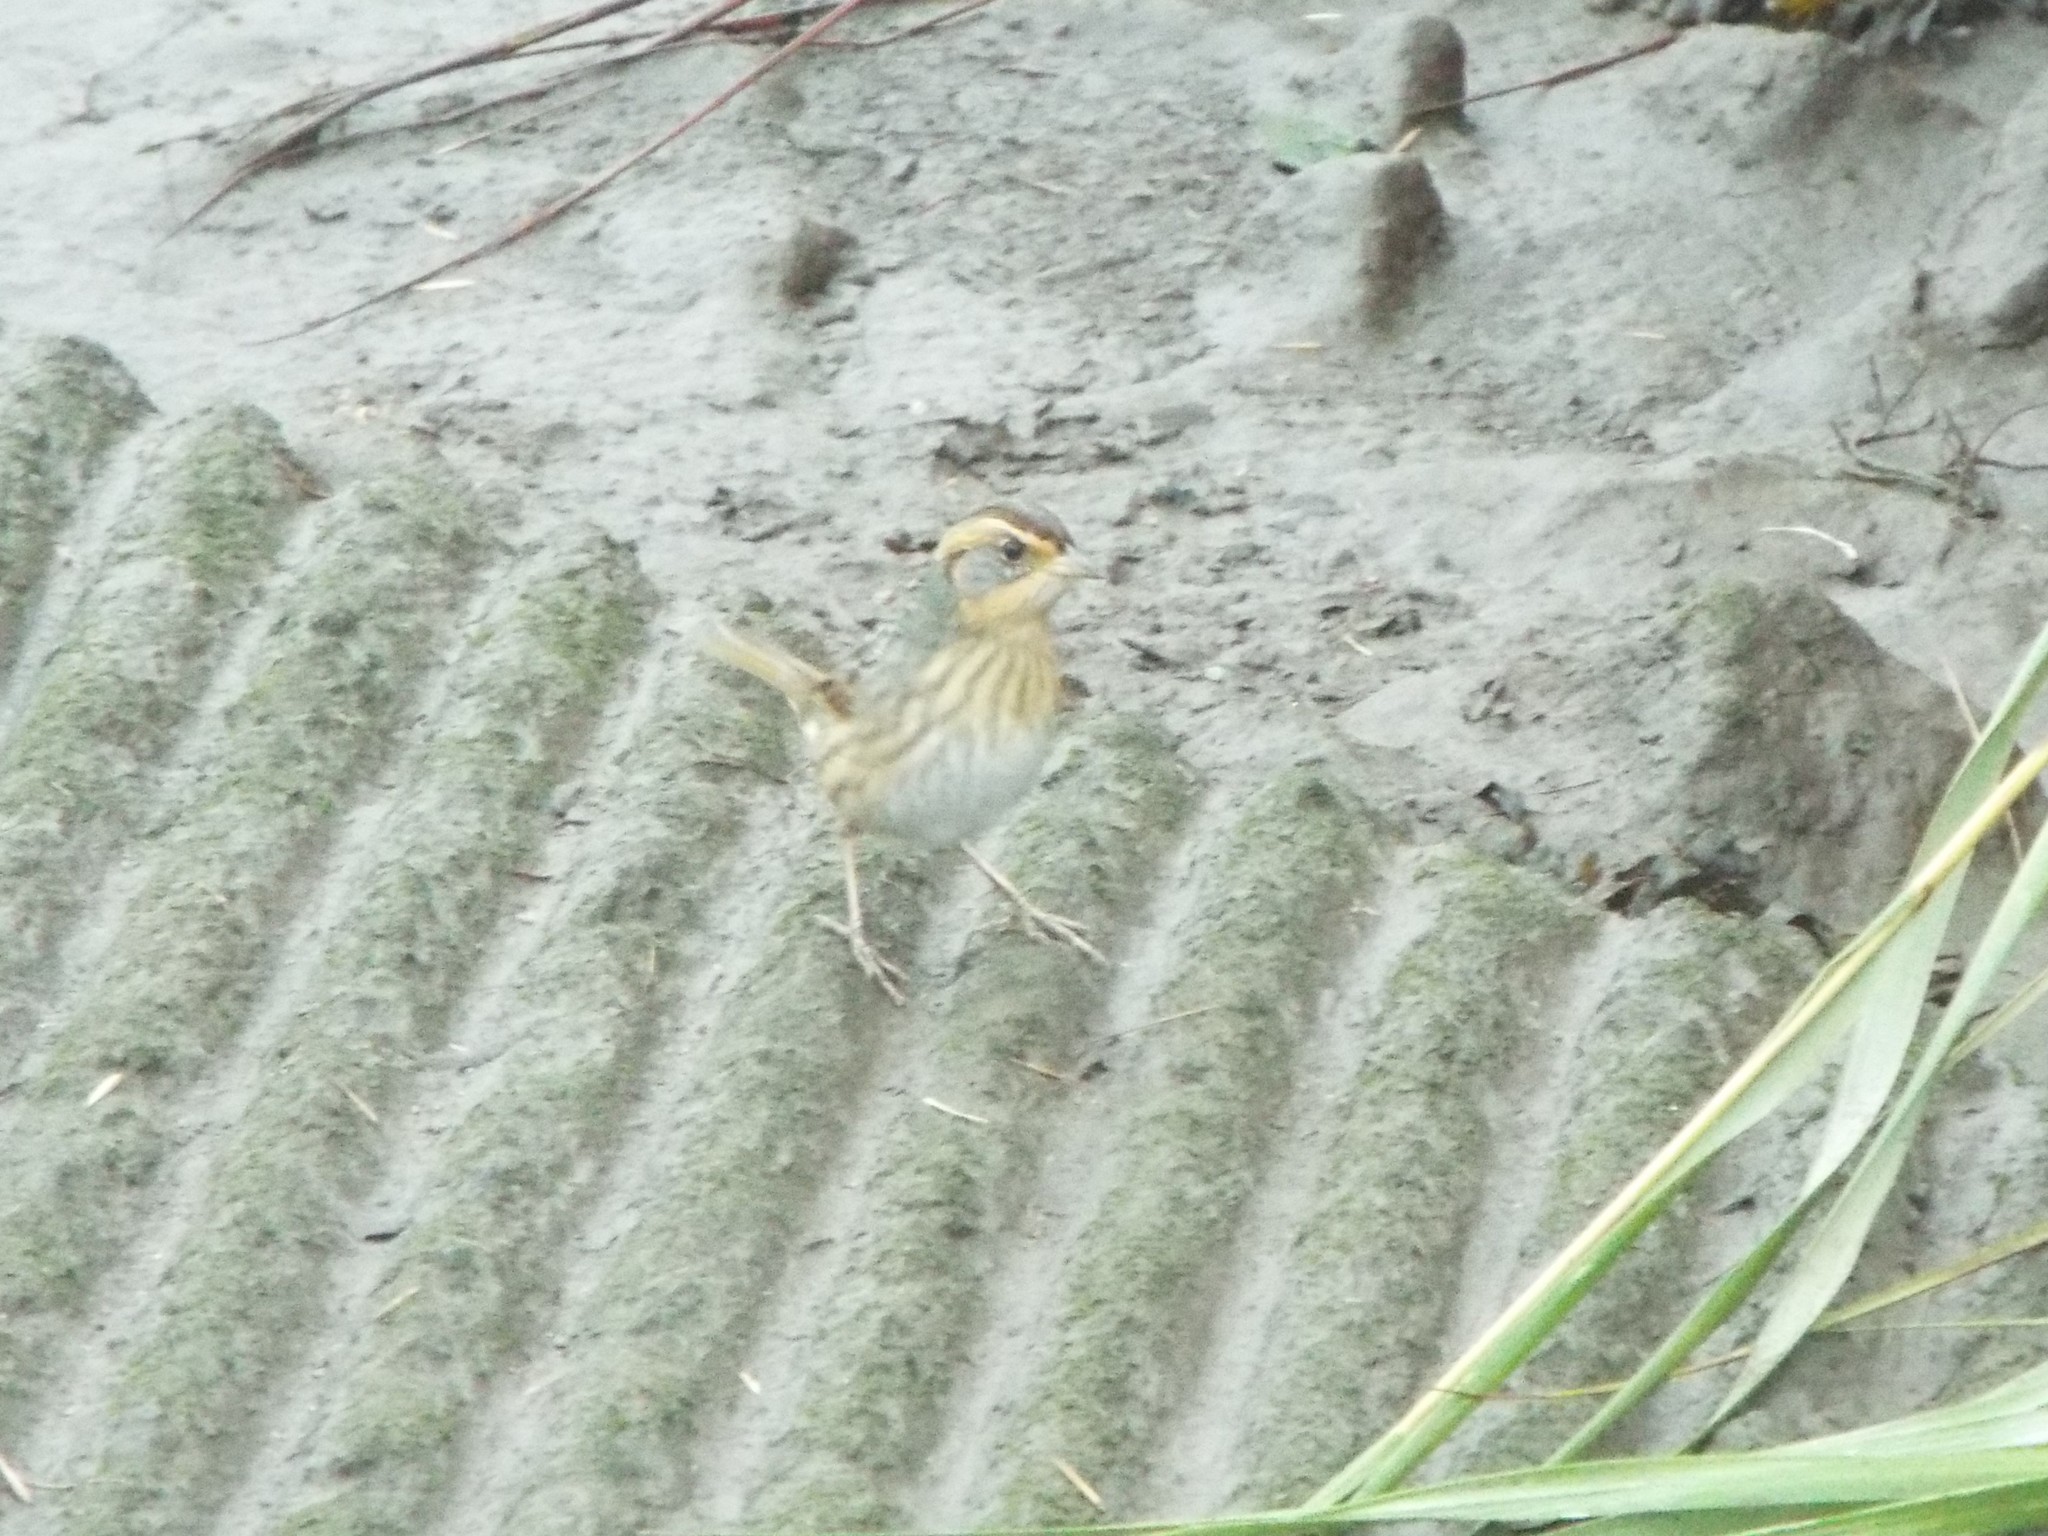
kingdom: Animalia
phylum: Chordata
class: Aves
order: Passeriformes
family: Passerellidae
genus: Ammospiza
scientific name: Ammospiza caudacuta
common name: Saltmarsh sparrow
